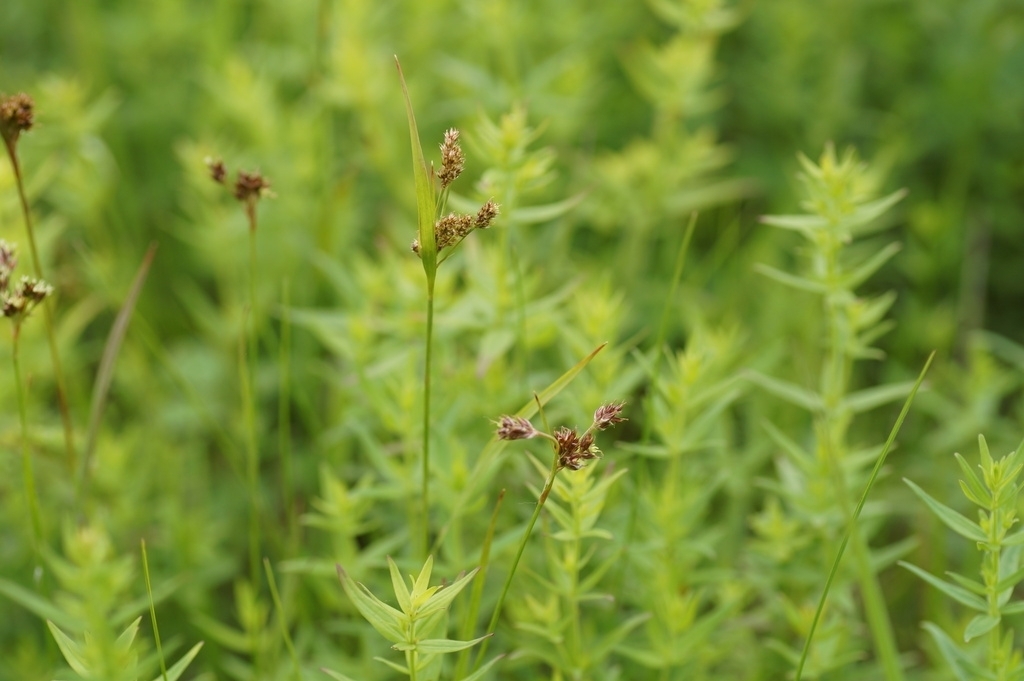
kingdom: Plantae
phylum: Tracheophyta
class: Liliopsida
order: Poales
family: Juncaceae
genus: Luzula
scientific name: Luzula pallescens
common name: Fen wood-rush
